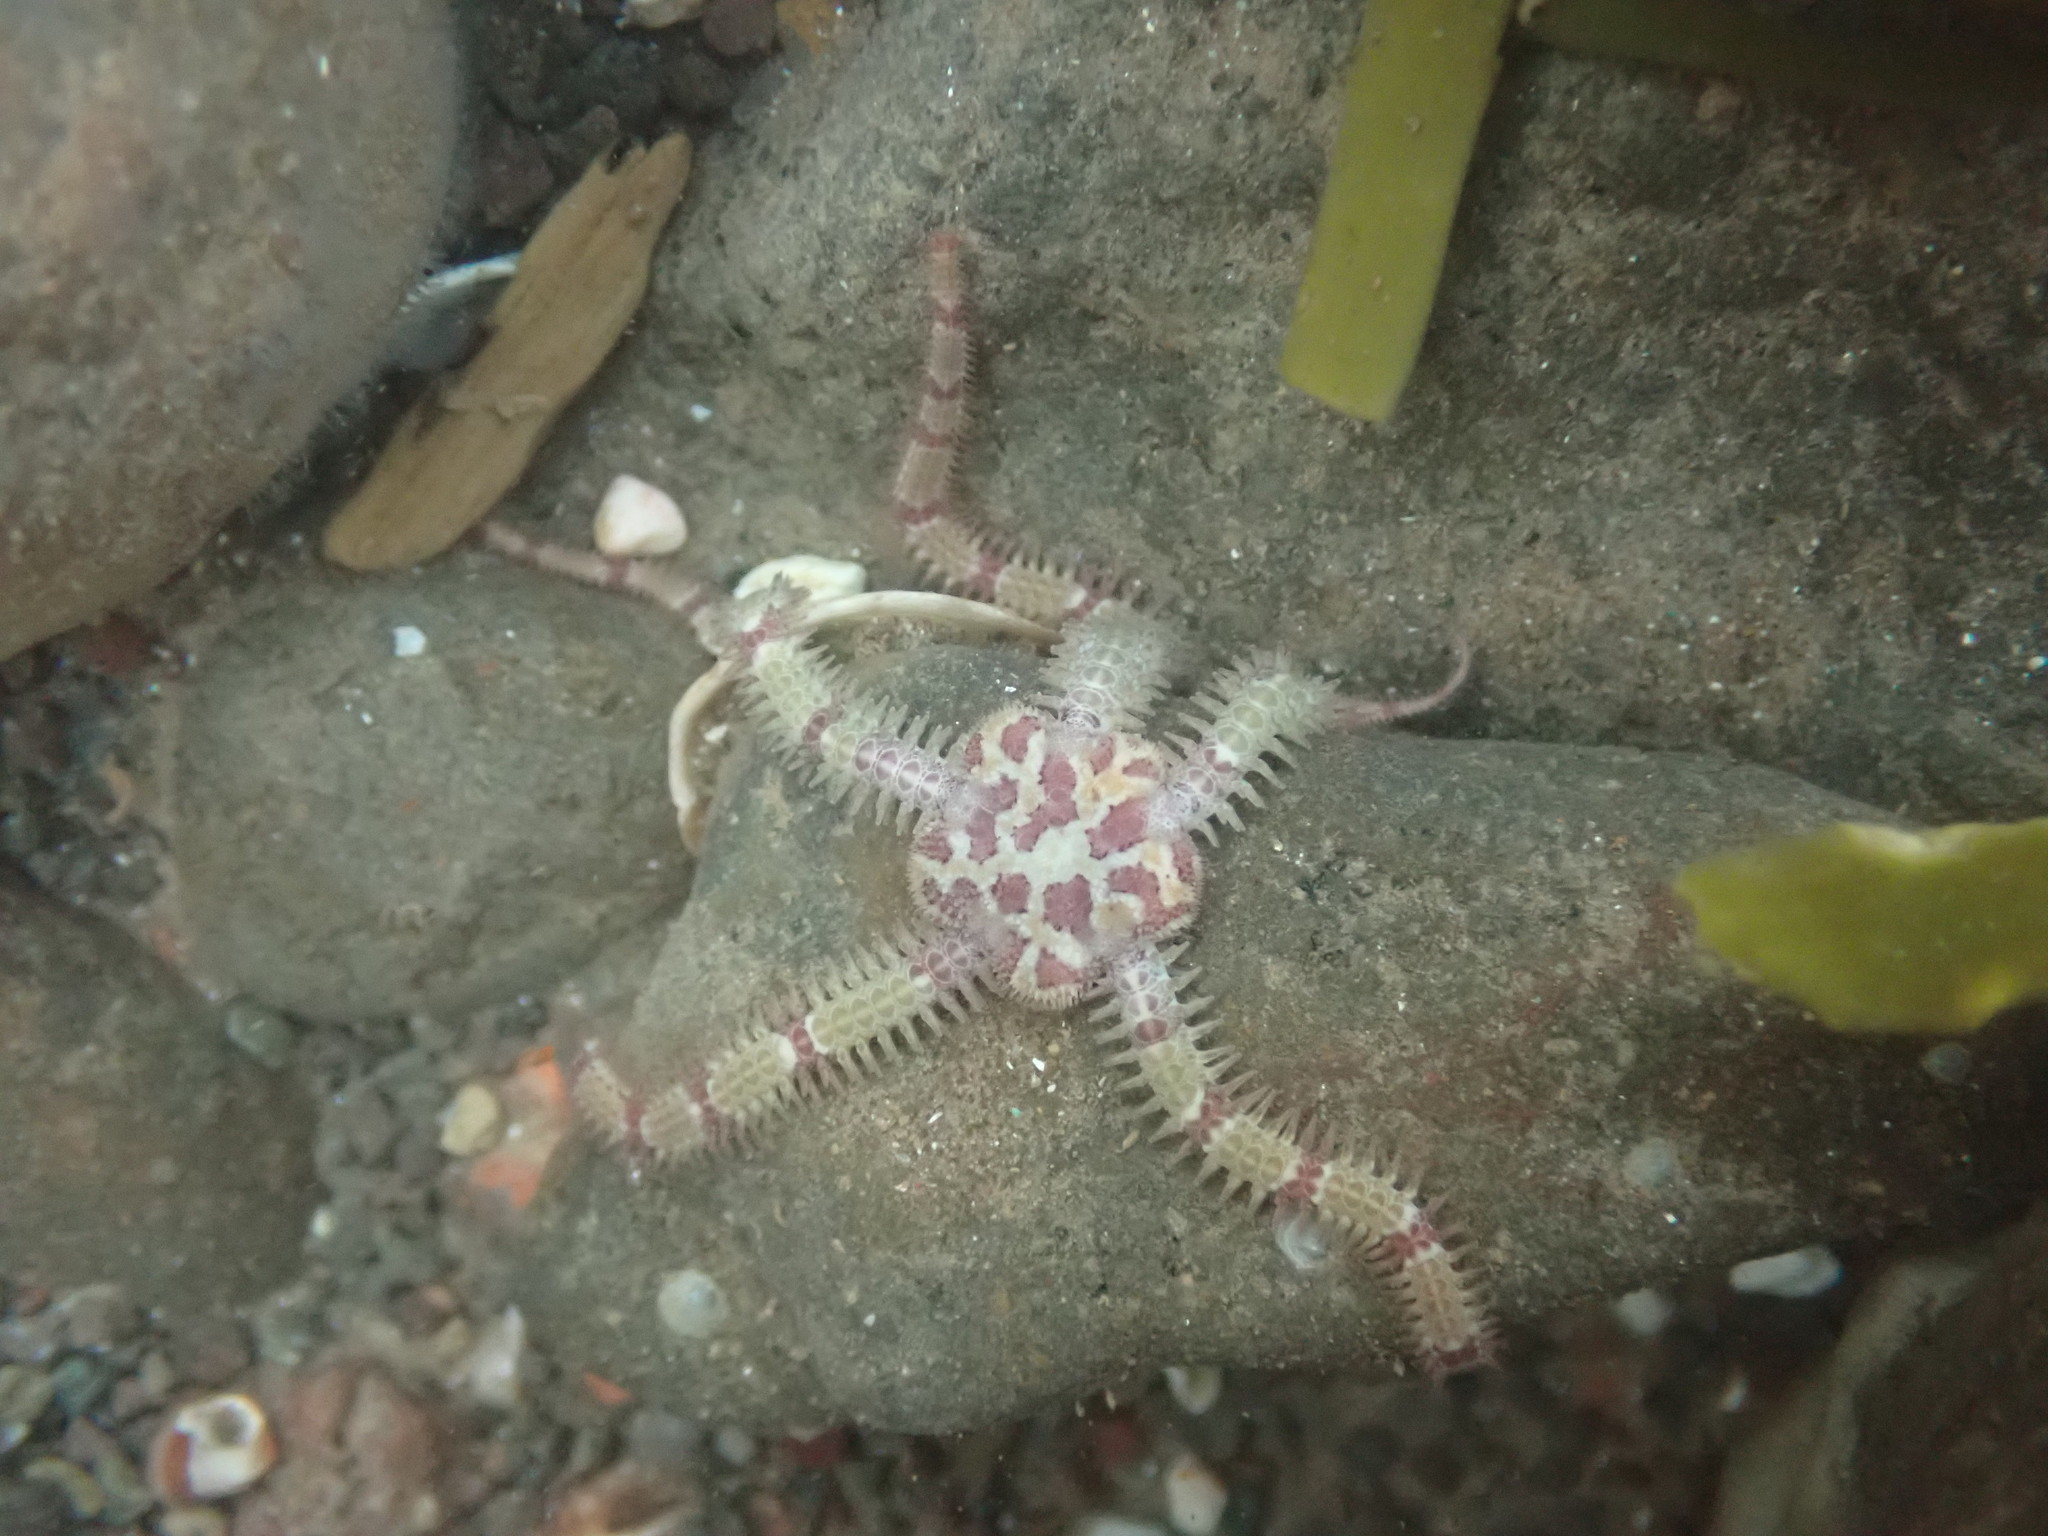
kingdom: Animalia
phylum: Echinodermata
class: Ophiuroidea
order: Amphilepidida
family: Ophiopholidae
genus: Ophiopholis
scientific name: Ophiopholis aculeata
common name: Crevice brittlestar
